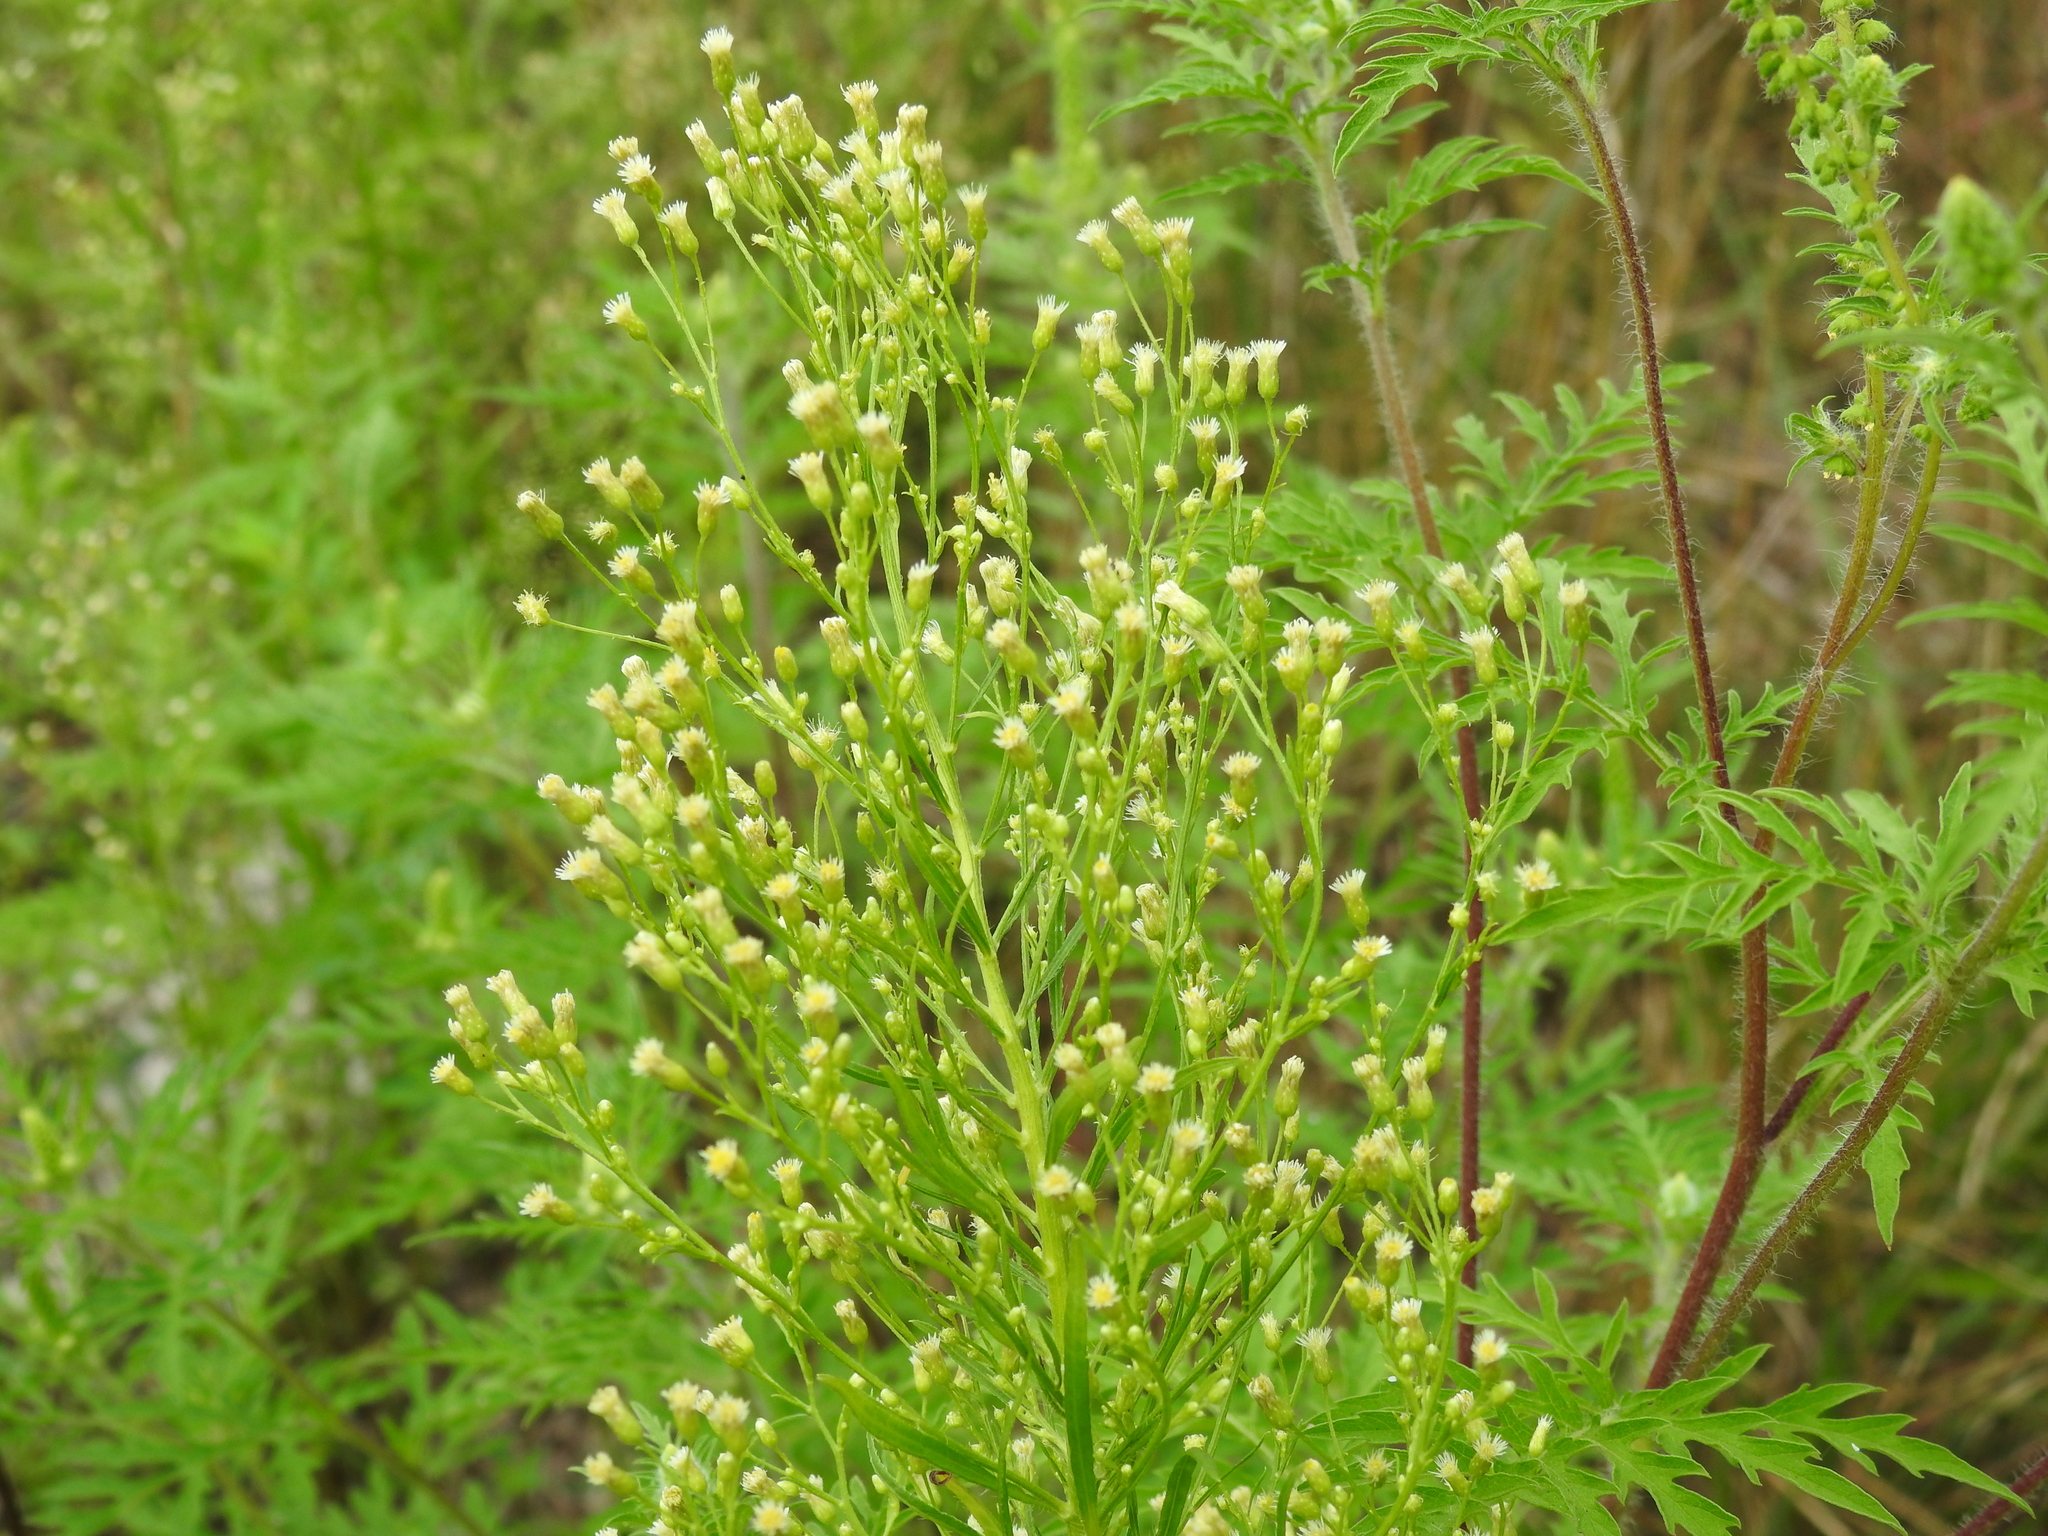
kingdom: Plantae
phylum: Tracheophyta
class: Magnoliopsida
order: Asterales
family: Asteraceae
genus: Erigeron
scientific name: Erigeron canadensis
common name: Canadian fleabane
